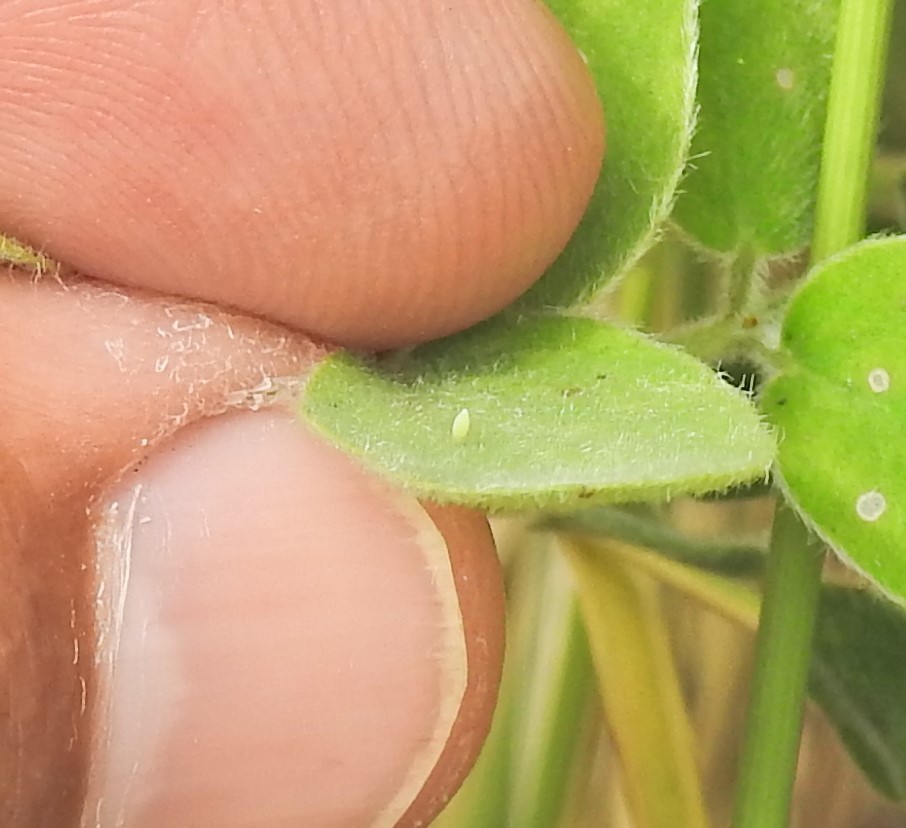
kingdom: Animalia
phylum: Arthropoda
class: Insecta
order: Lepidoptera
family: Pieridae
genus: Abaeis
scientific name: Abaeis nicippe
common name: Sleepy orange
